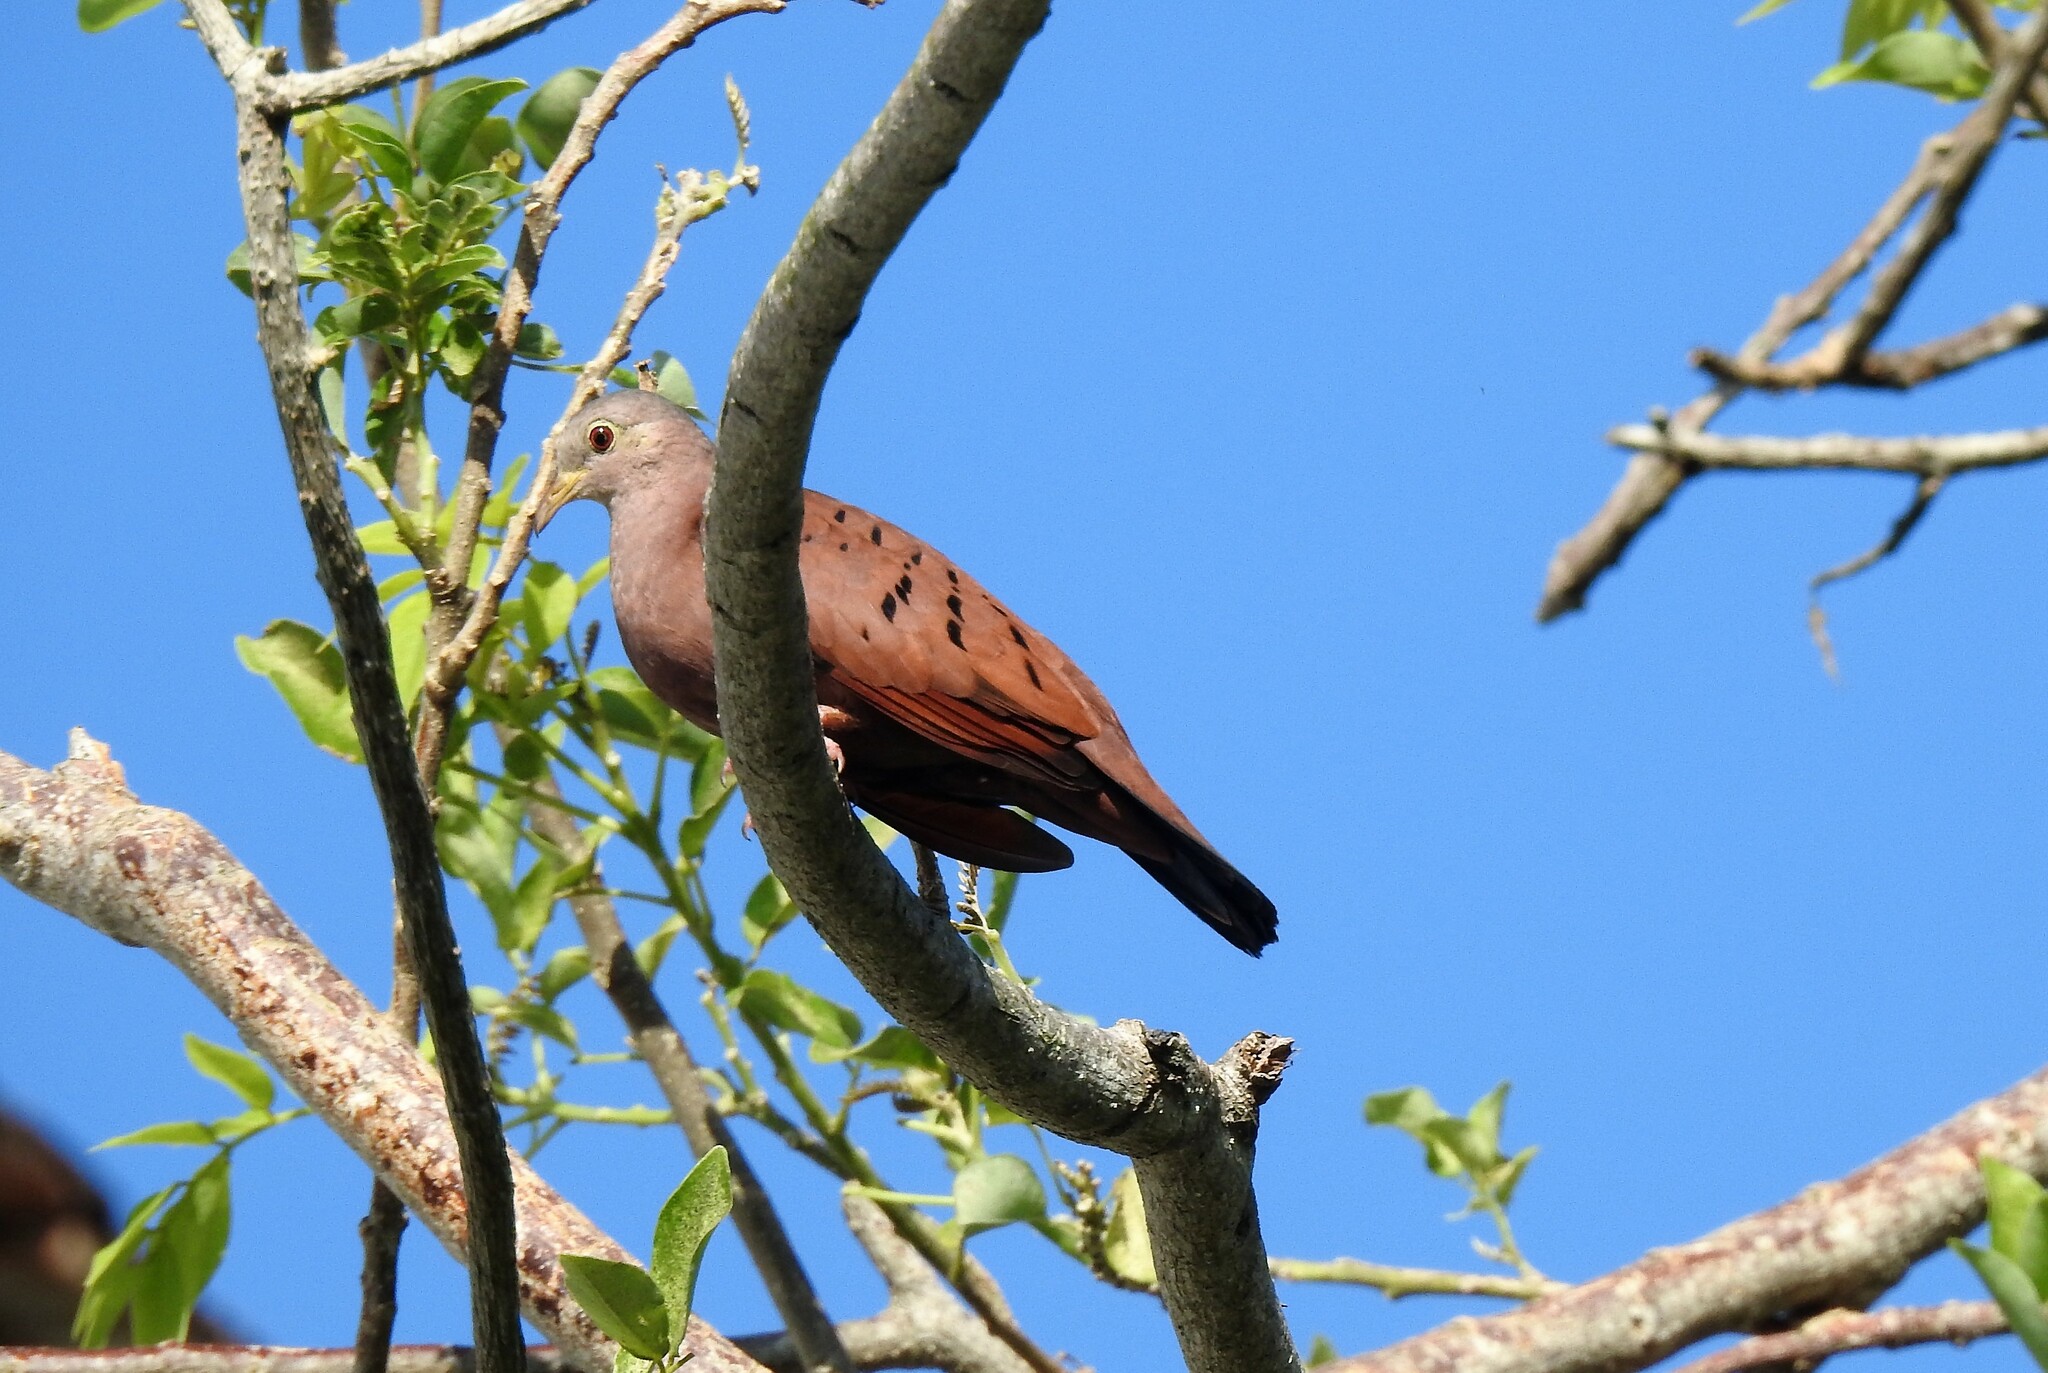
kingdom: Animalia
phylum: Chordata
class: Aves
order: Columbiformes
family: Columbidae
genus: Columbina
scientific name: Columbina talpacoti
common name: Ruddy ground dove
